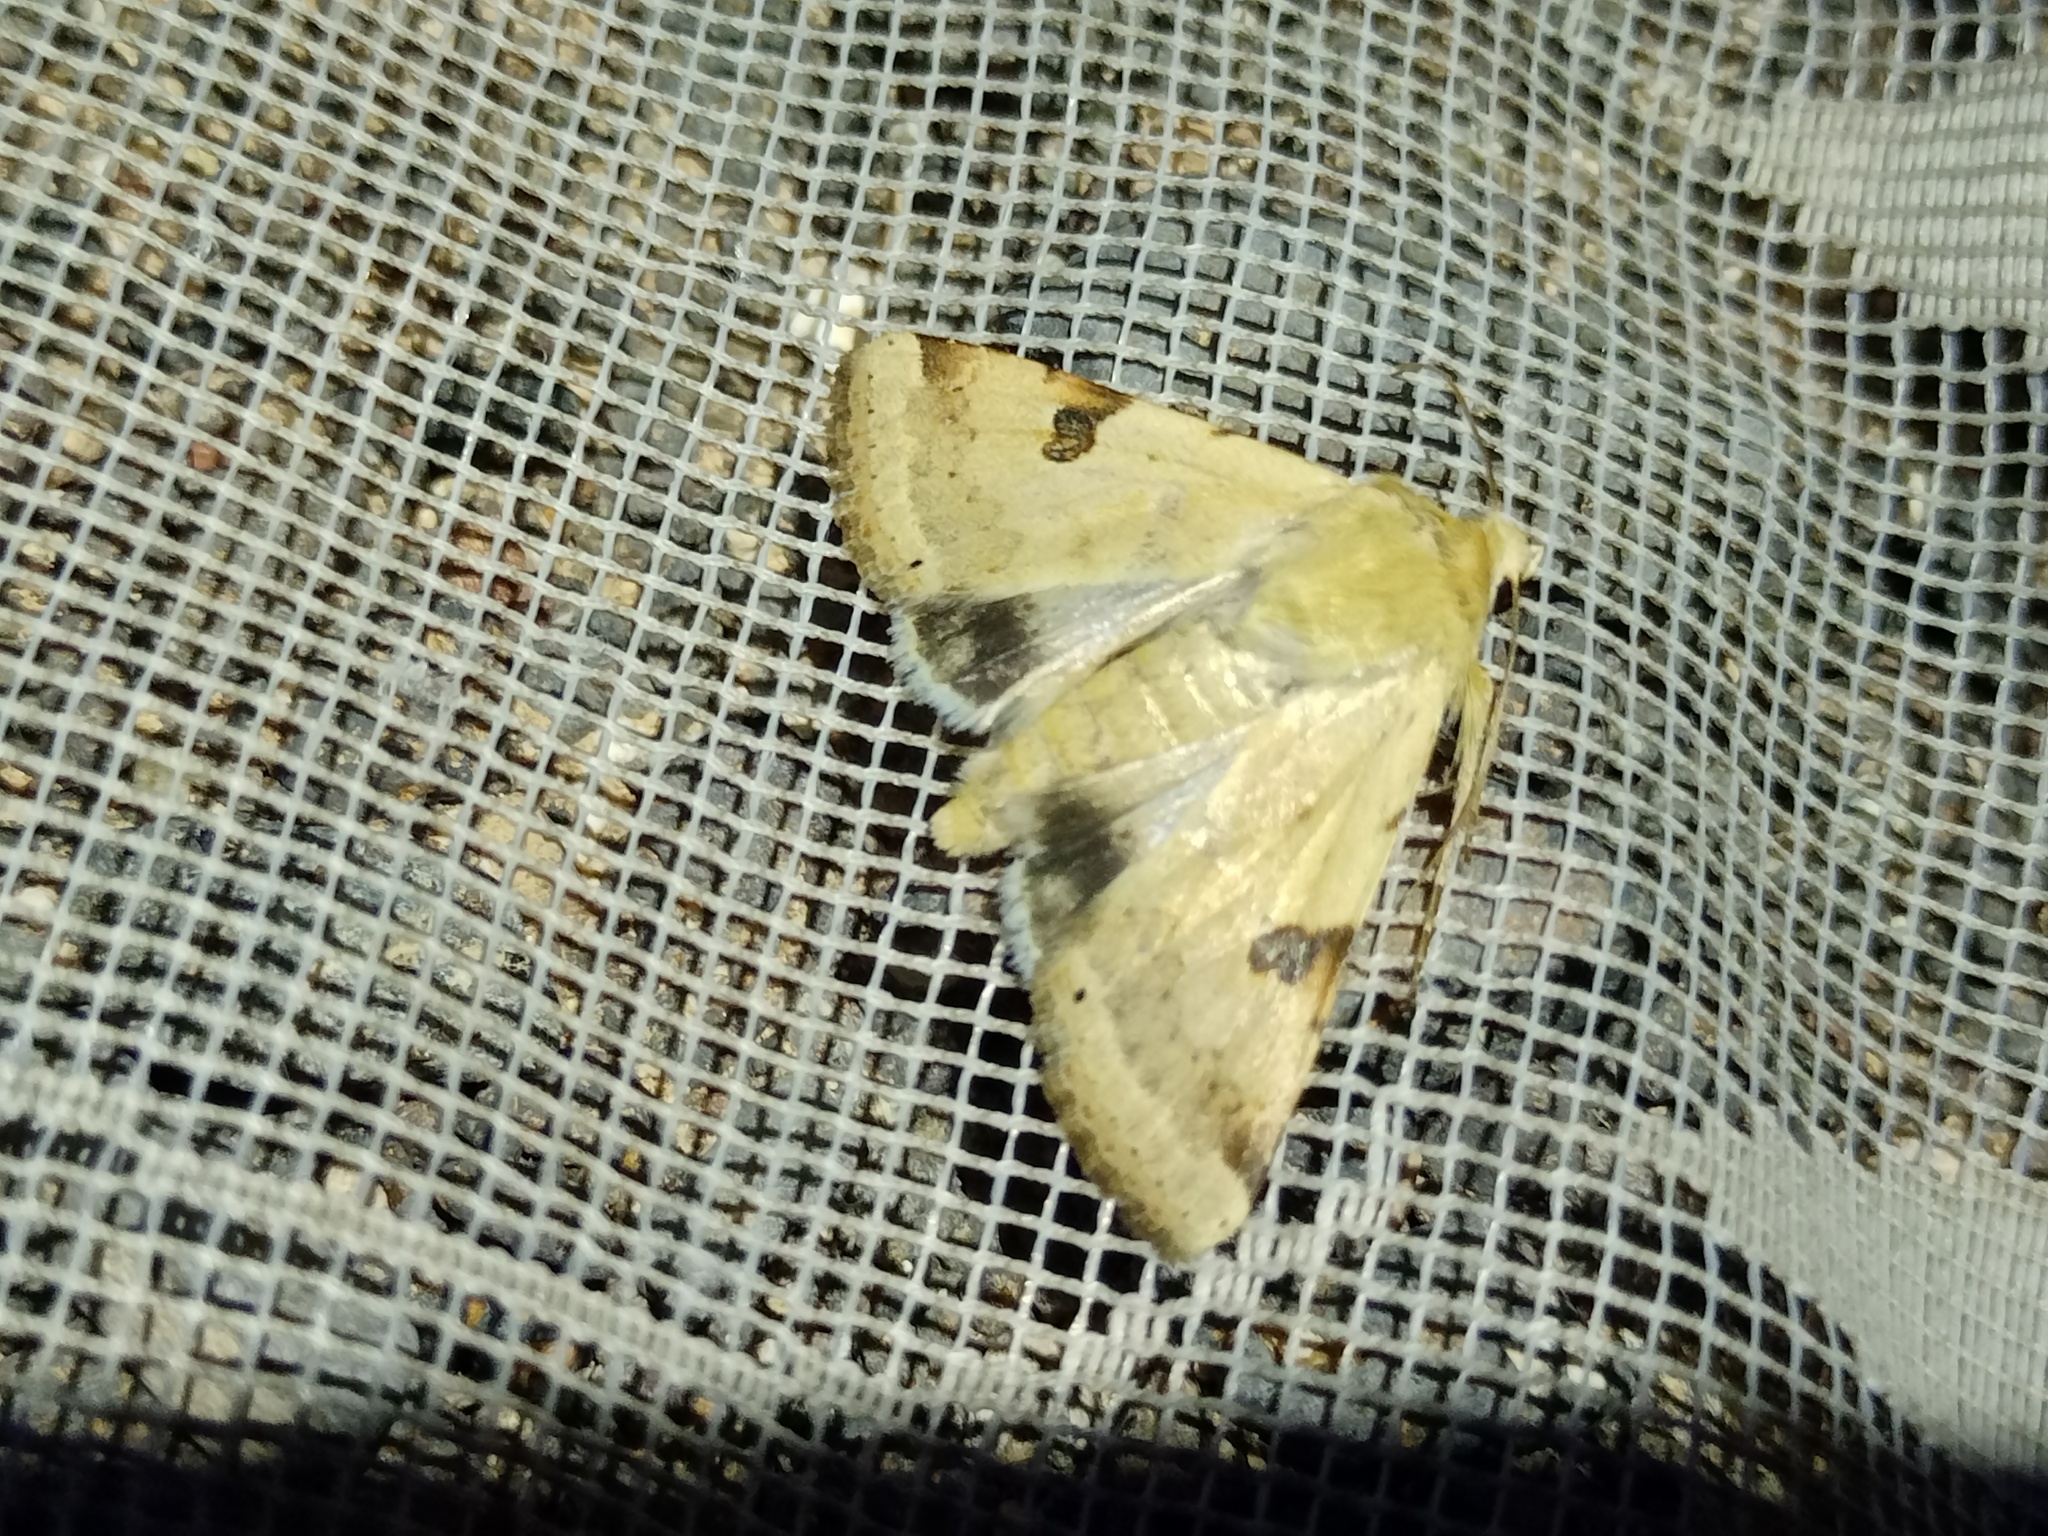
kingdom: Animalia
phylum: Arthropoda
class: Insecta
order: Lepidoptera
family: Noctuidae
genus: Heliothis
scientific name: Heliothis peltigera
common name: Bordered straw
